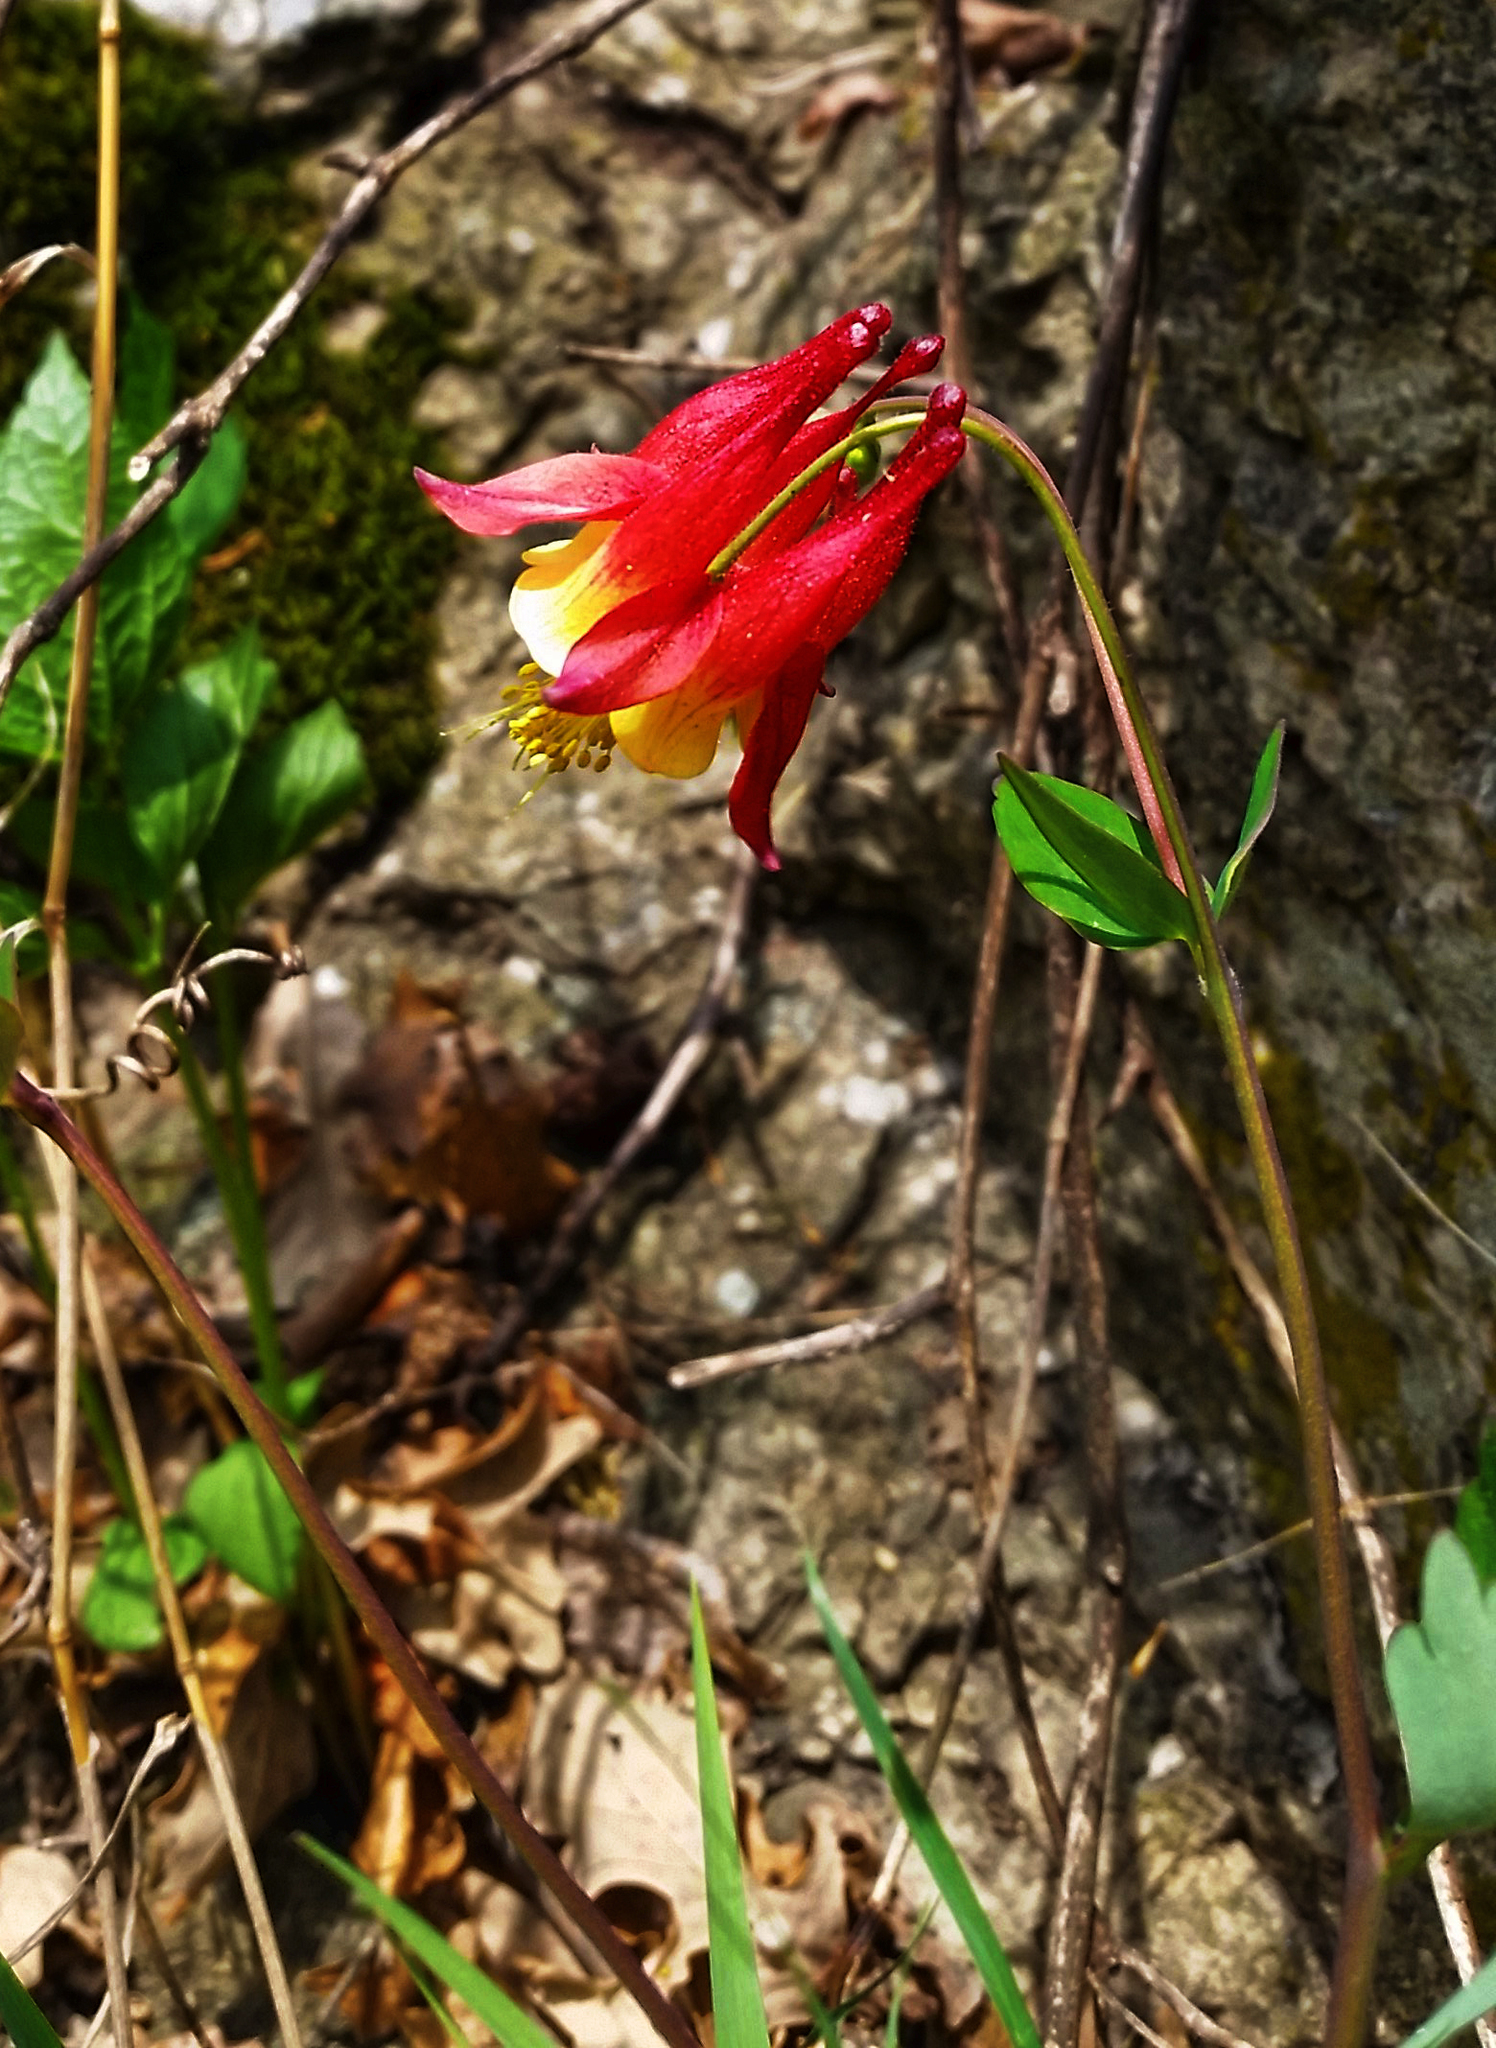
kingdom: Plantae
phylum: Tracheophyta
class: Magnoliopsida
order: Ranunculales
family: Ranunculaceae
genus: Aquilegia
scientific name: Aquilegia canadensis
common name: American columbine
